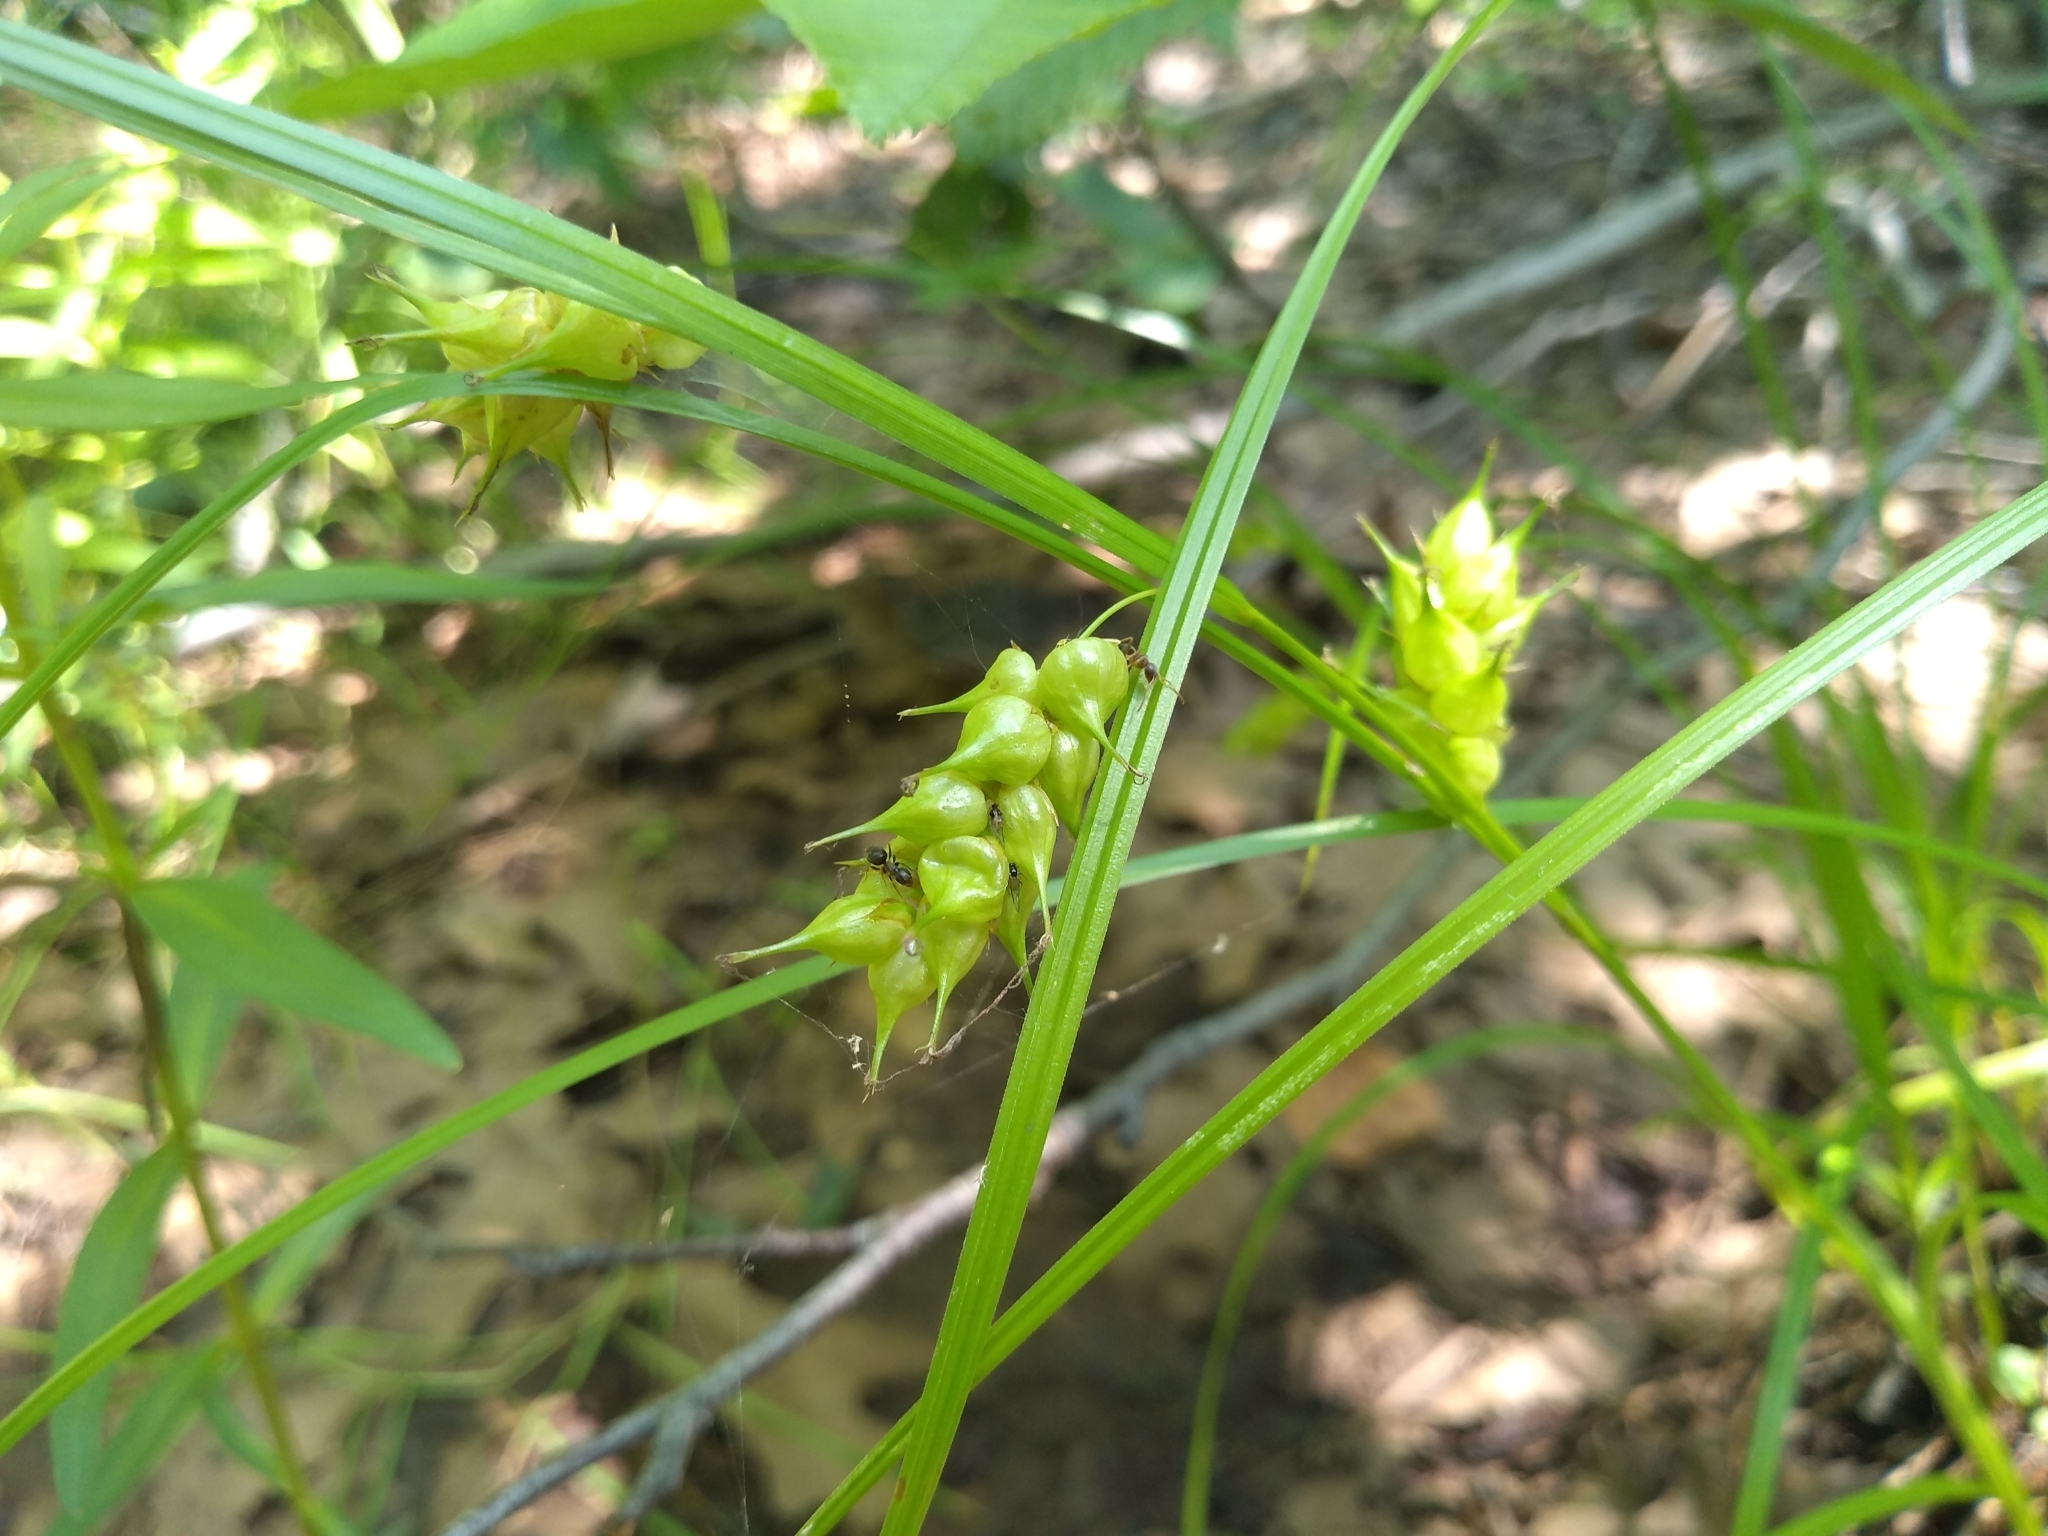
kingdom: Plantae
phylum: Tracheophyta
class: Liliopsida
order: Poales
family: Cyperaceae
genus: Carex
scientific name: Carex tuckermanii
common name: Tuckerman's sedge
